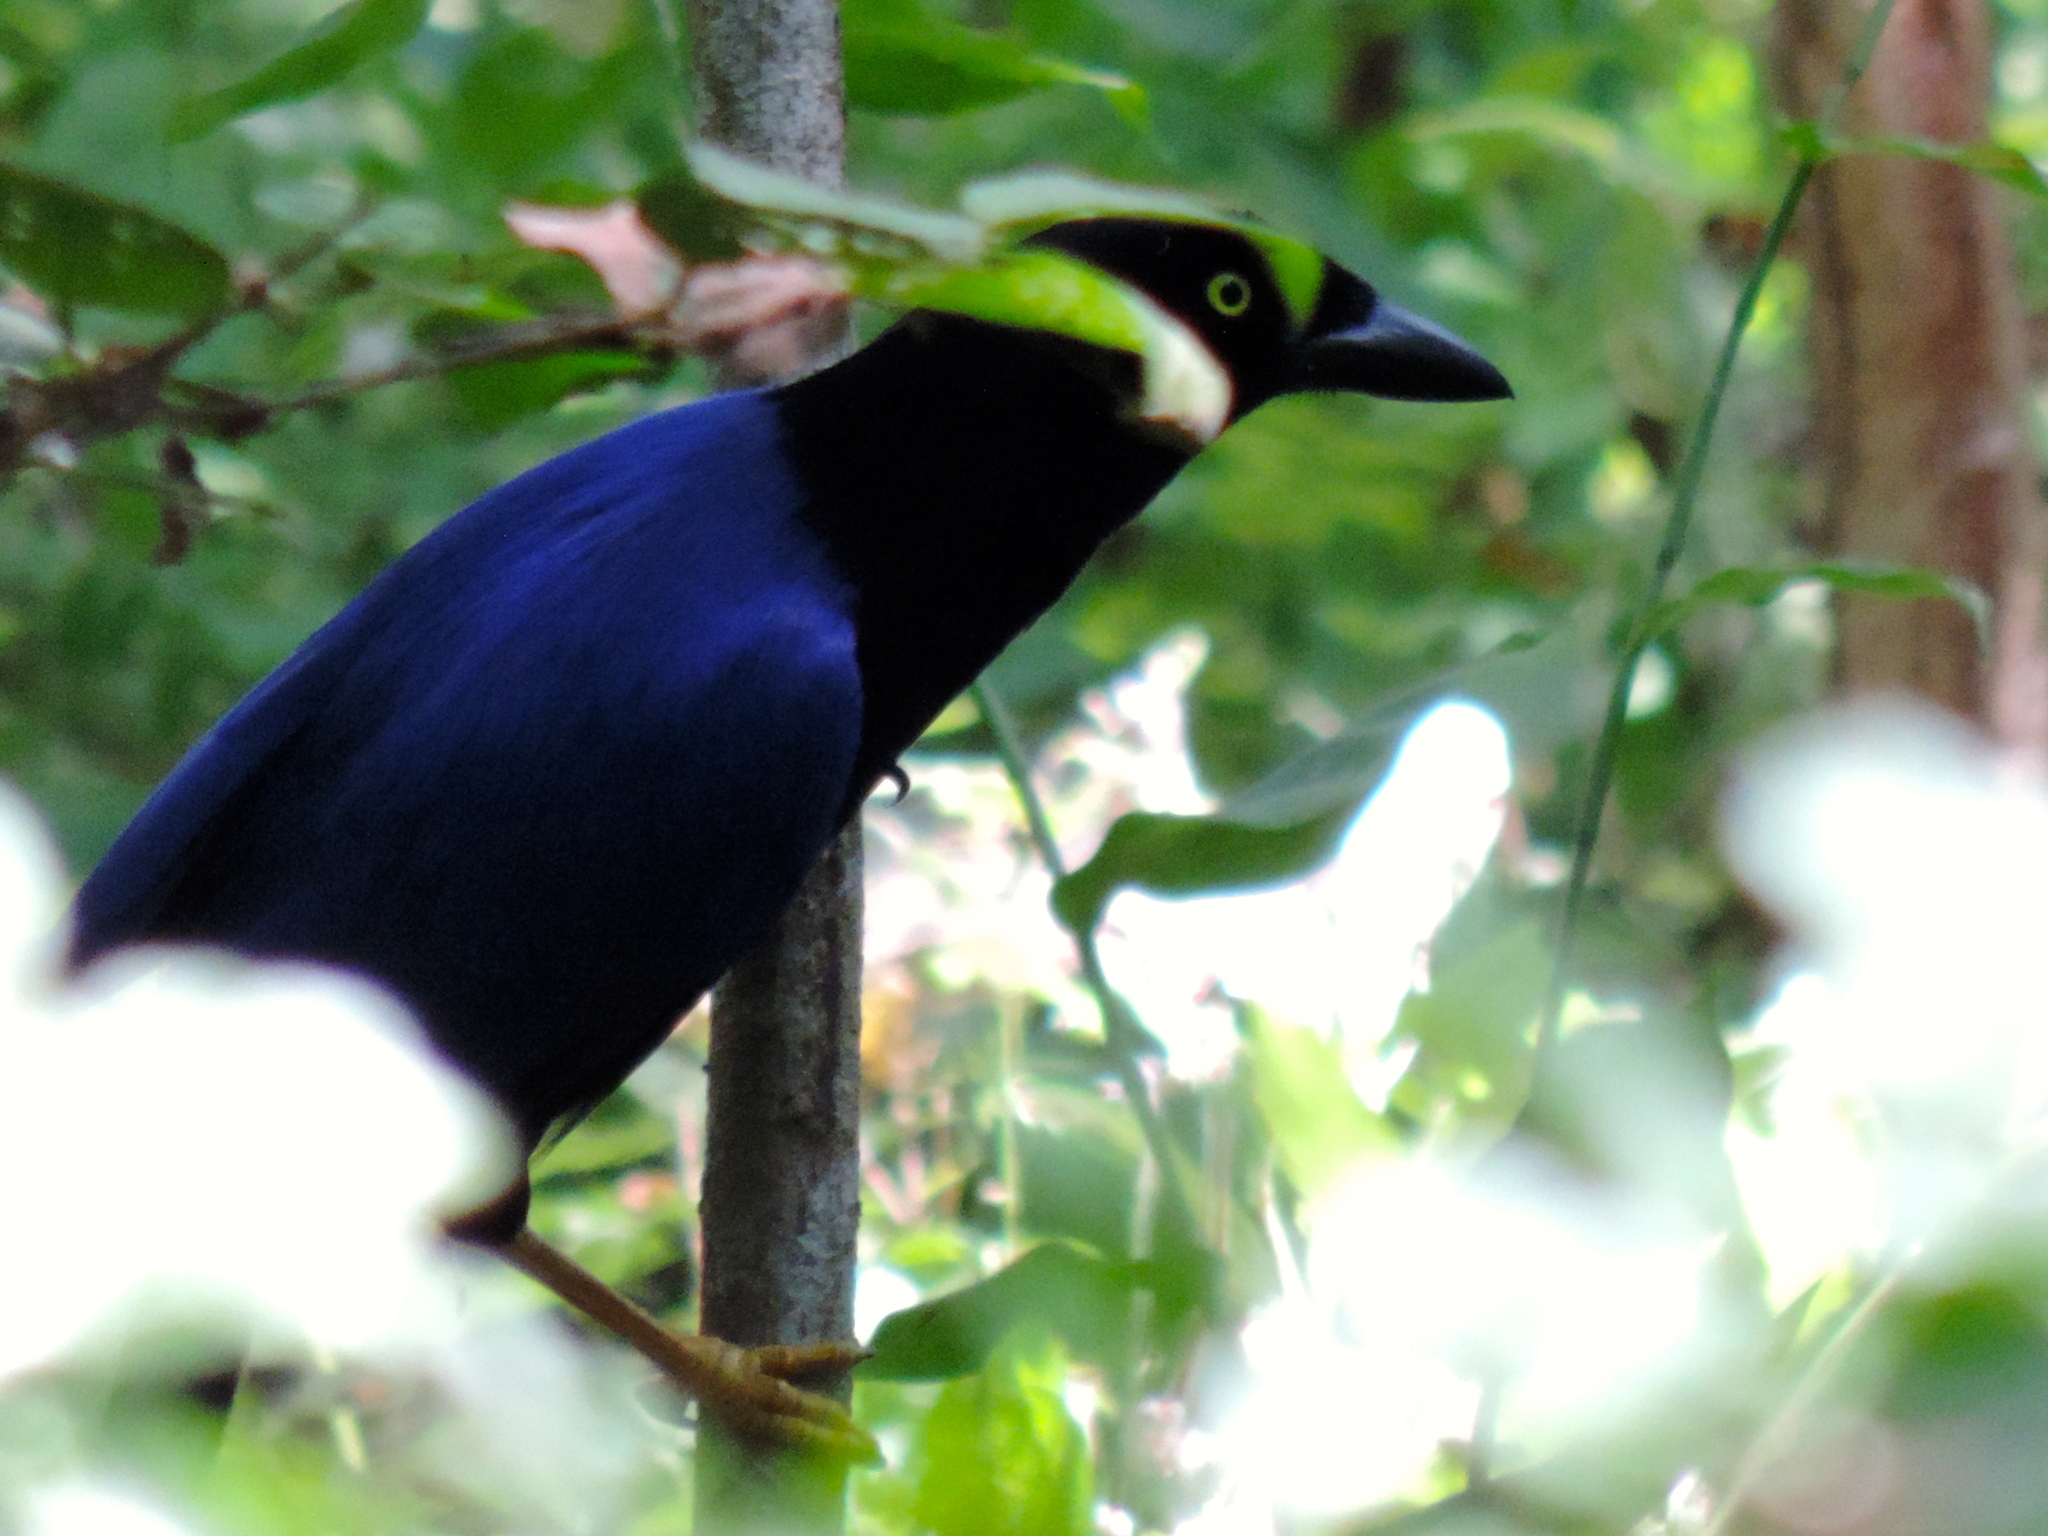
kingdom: Animalia
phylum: Chordata
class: Aves
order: Passeriformes
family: Corvidae
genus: Cyanocorax
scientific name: Cyanocorax beecheii
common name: Purplish-backed jay
